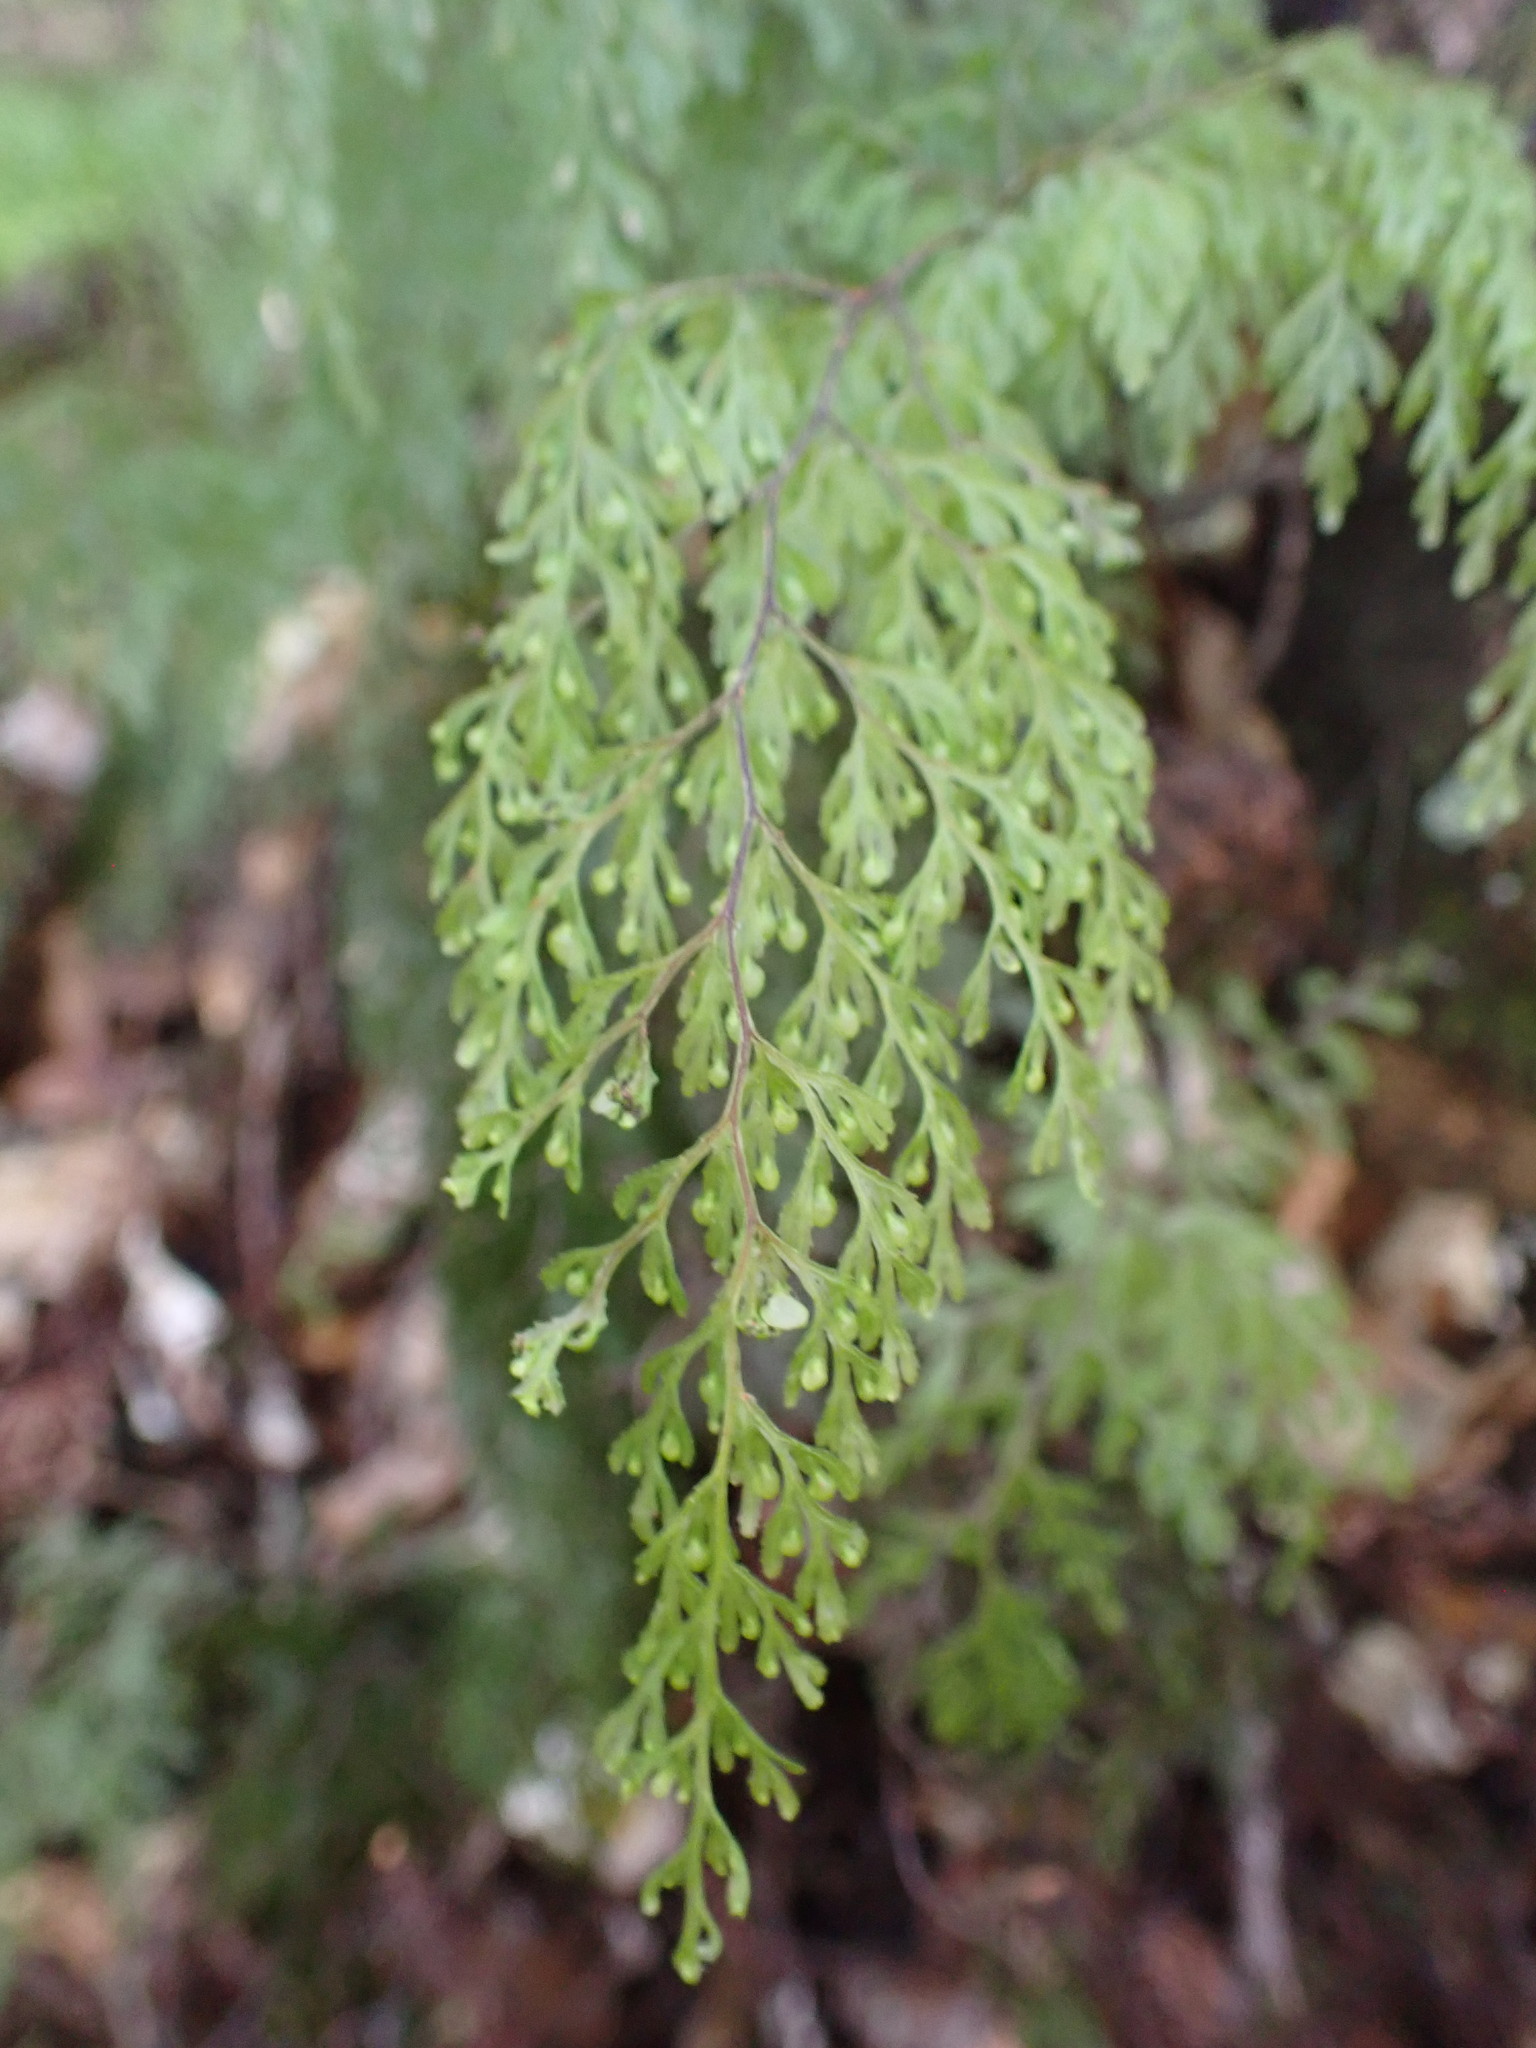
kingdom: Plantae
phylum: Tracheophyta
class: Polypodiopsida
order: Hymenophyllales
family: Hymenophyllaceae
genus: Hymenophyllum
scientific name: Hymenophyllum bivalve
